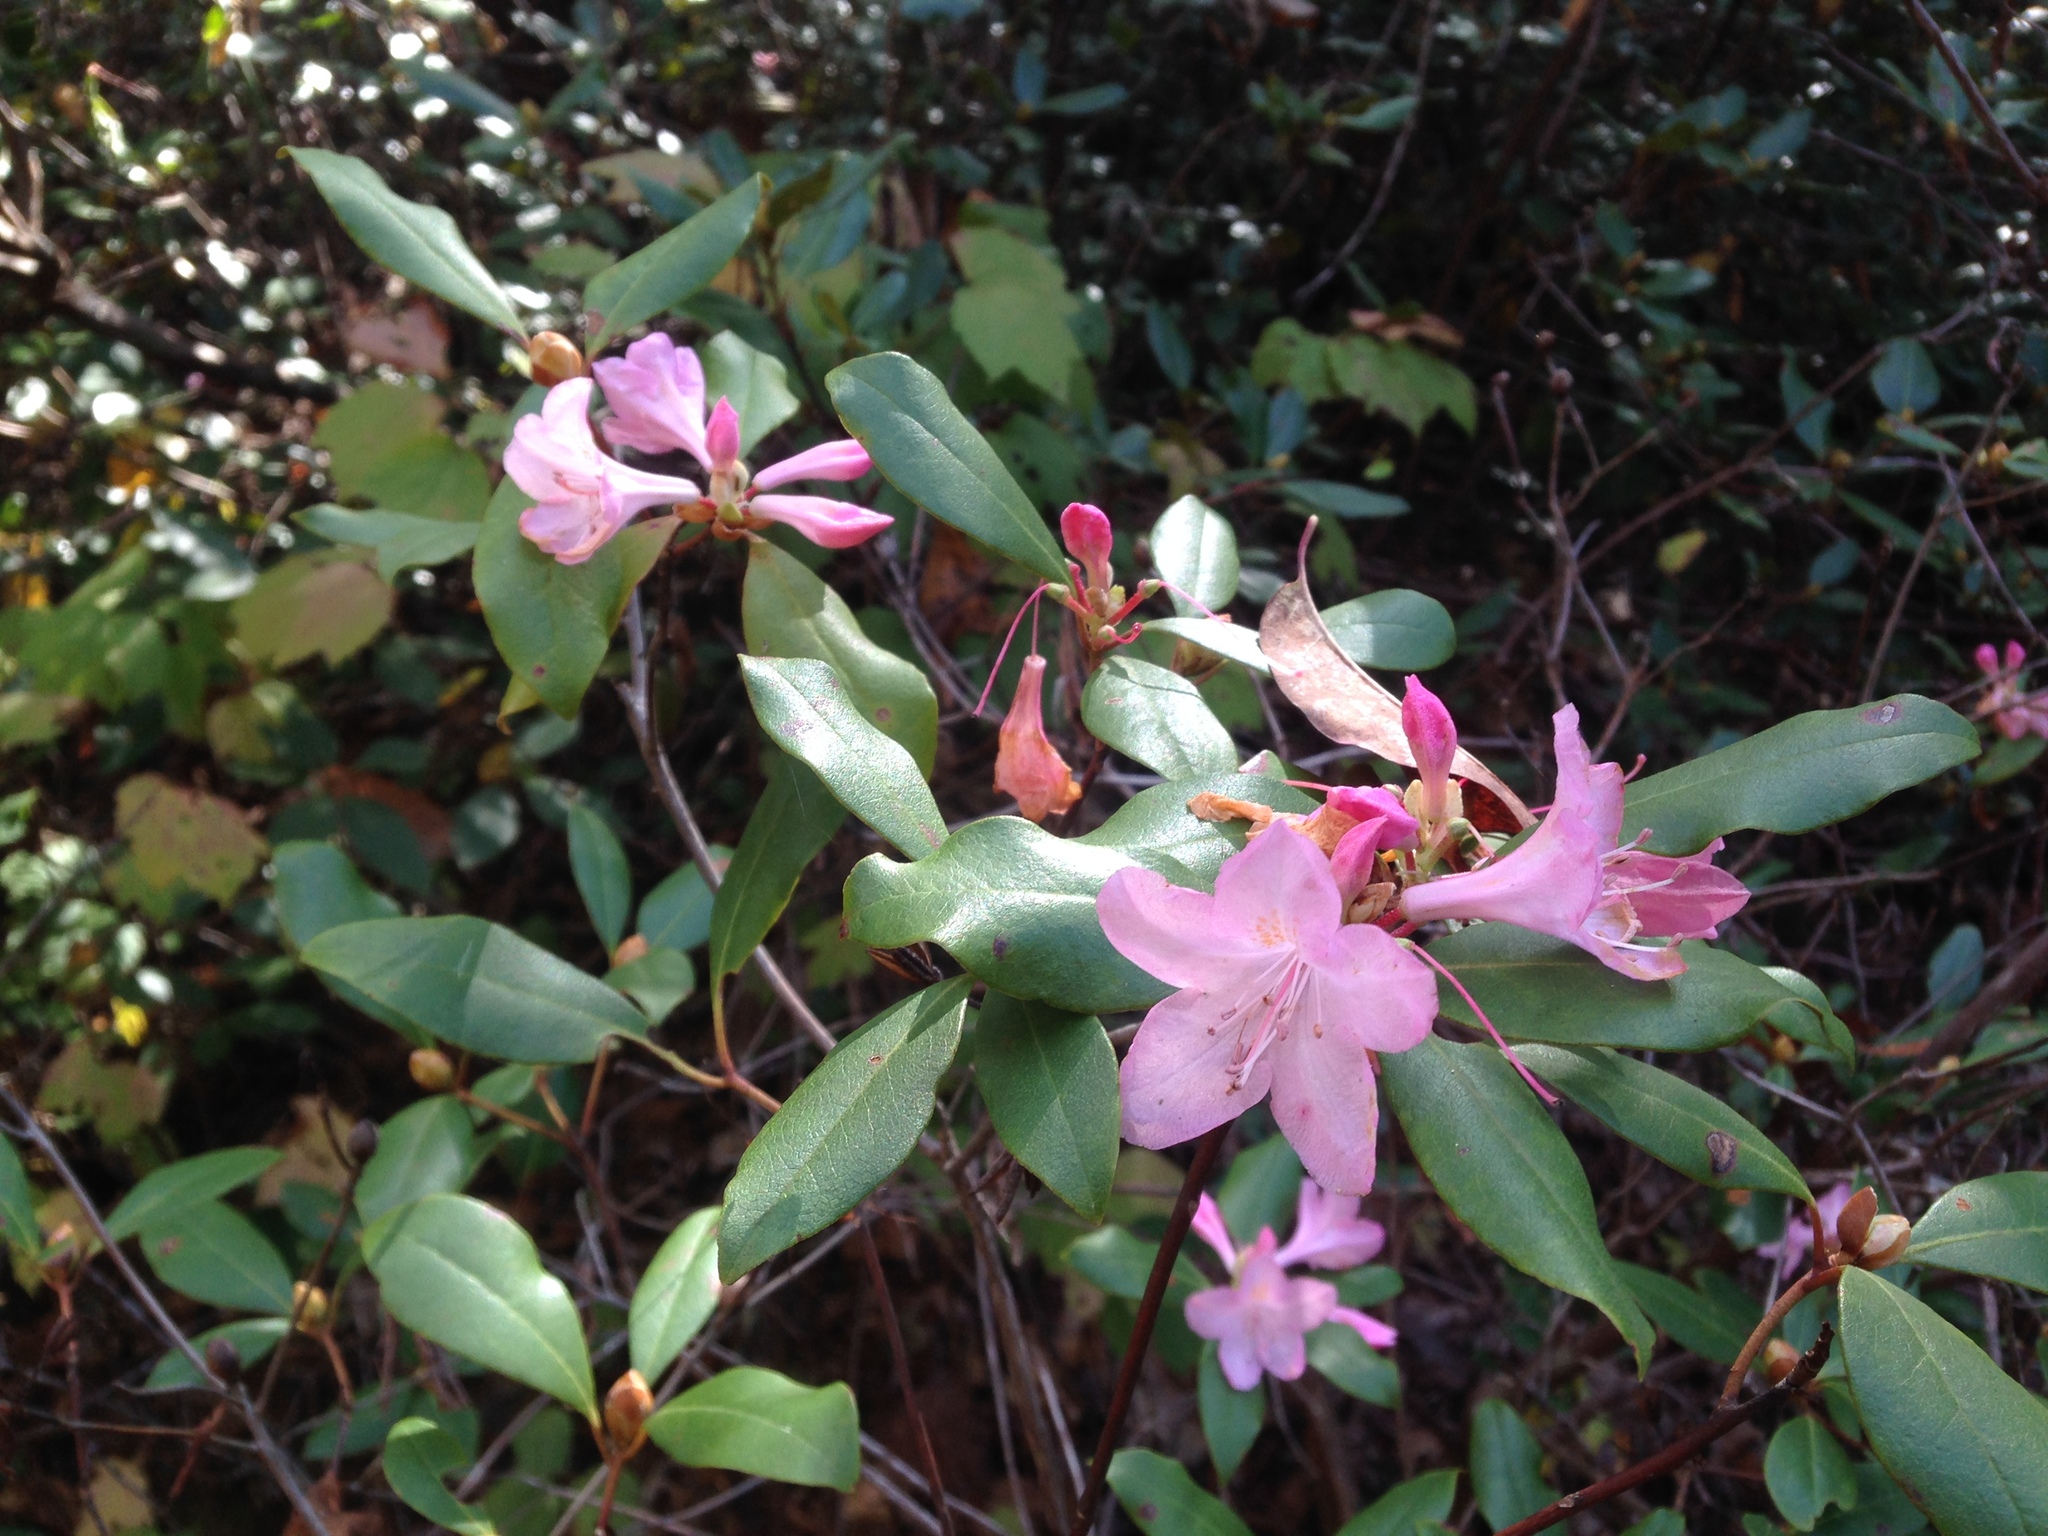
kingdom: Plantae
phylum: Tracheophyta
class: Magnoliopsida
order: Ericales
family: Ericaceae
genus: Rhododendron
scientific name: Rhododendron minus
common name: Piedmont rhododendron
